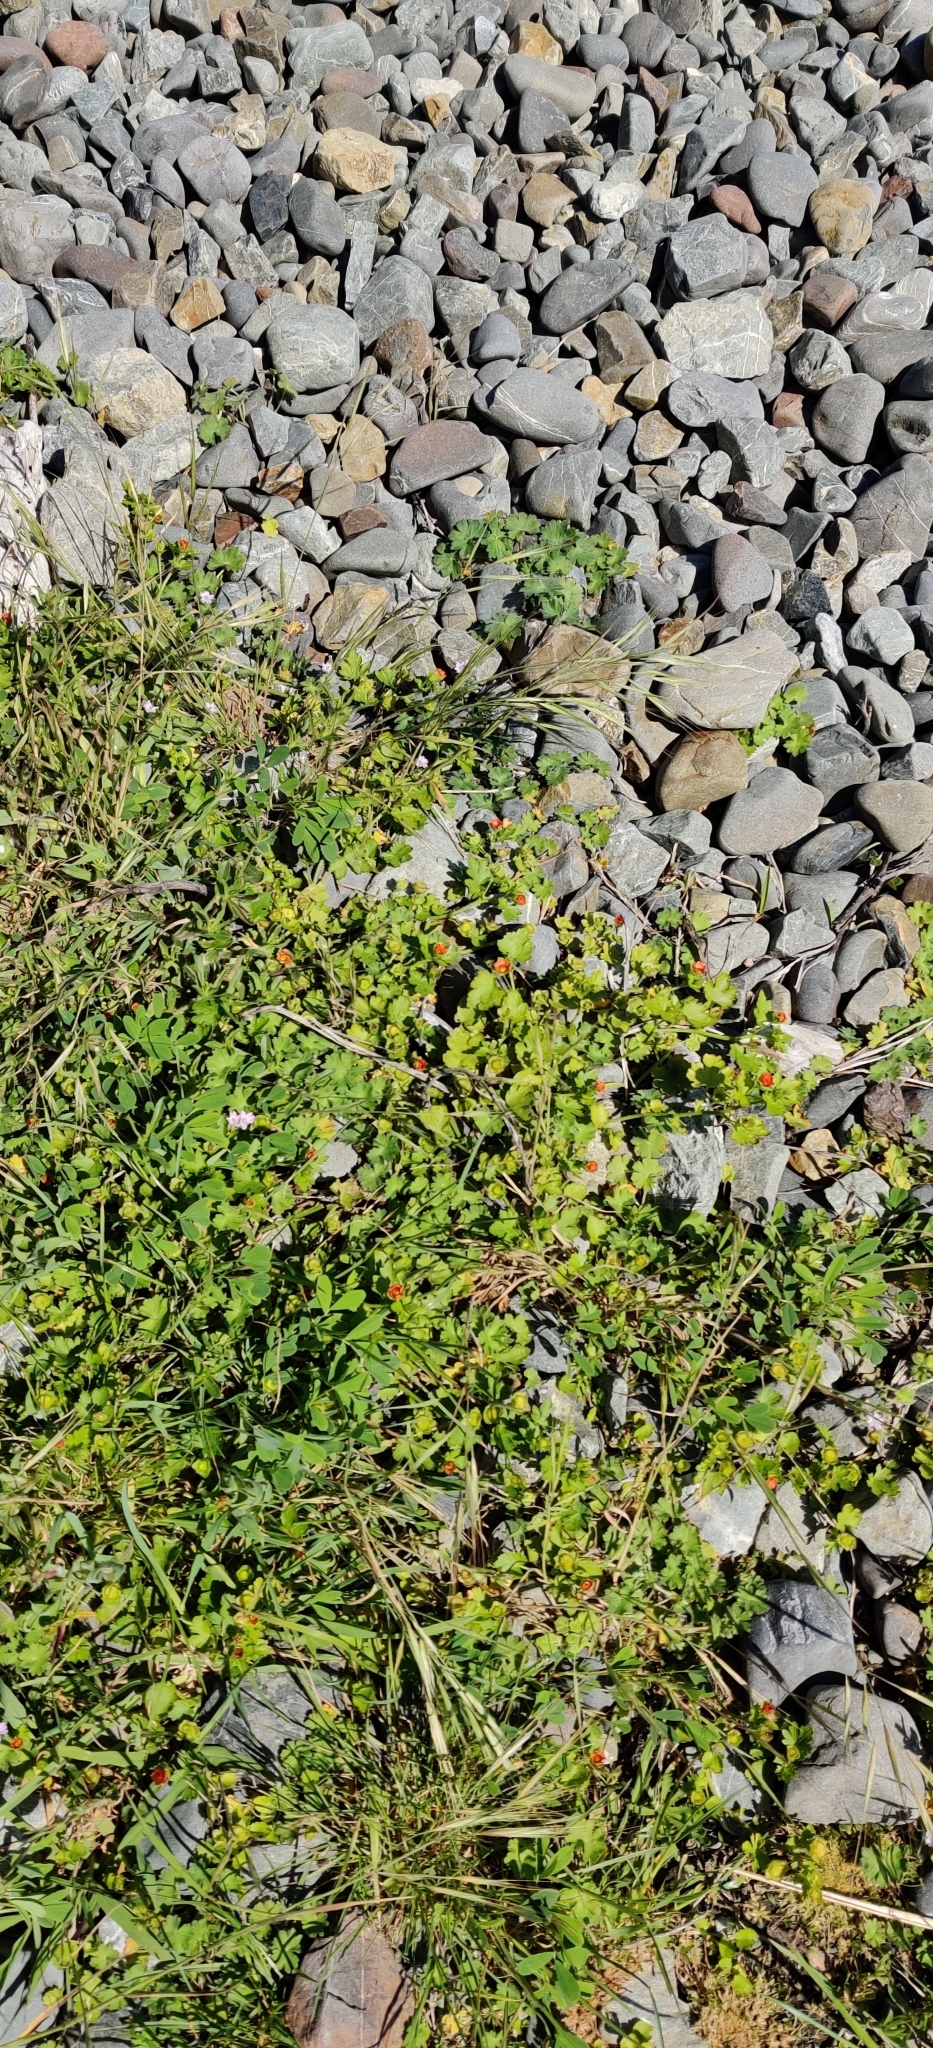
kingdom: Plantae
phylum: Tracheophyta
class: Magnoliopsida
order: Malvales
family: Malvaceae
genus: Modiola
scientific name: Modiola caroliniana
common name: Carolina bristlemallow
